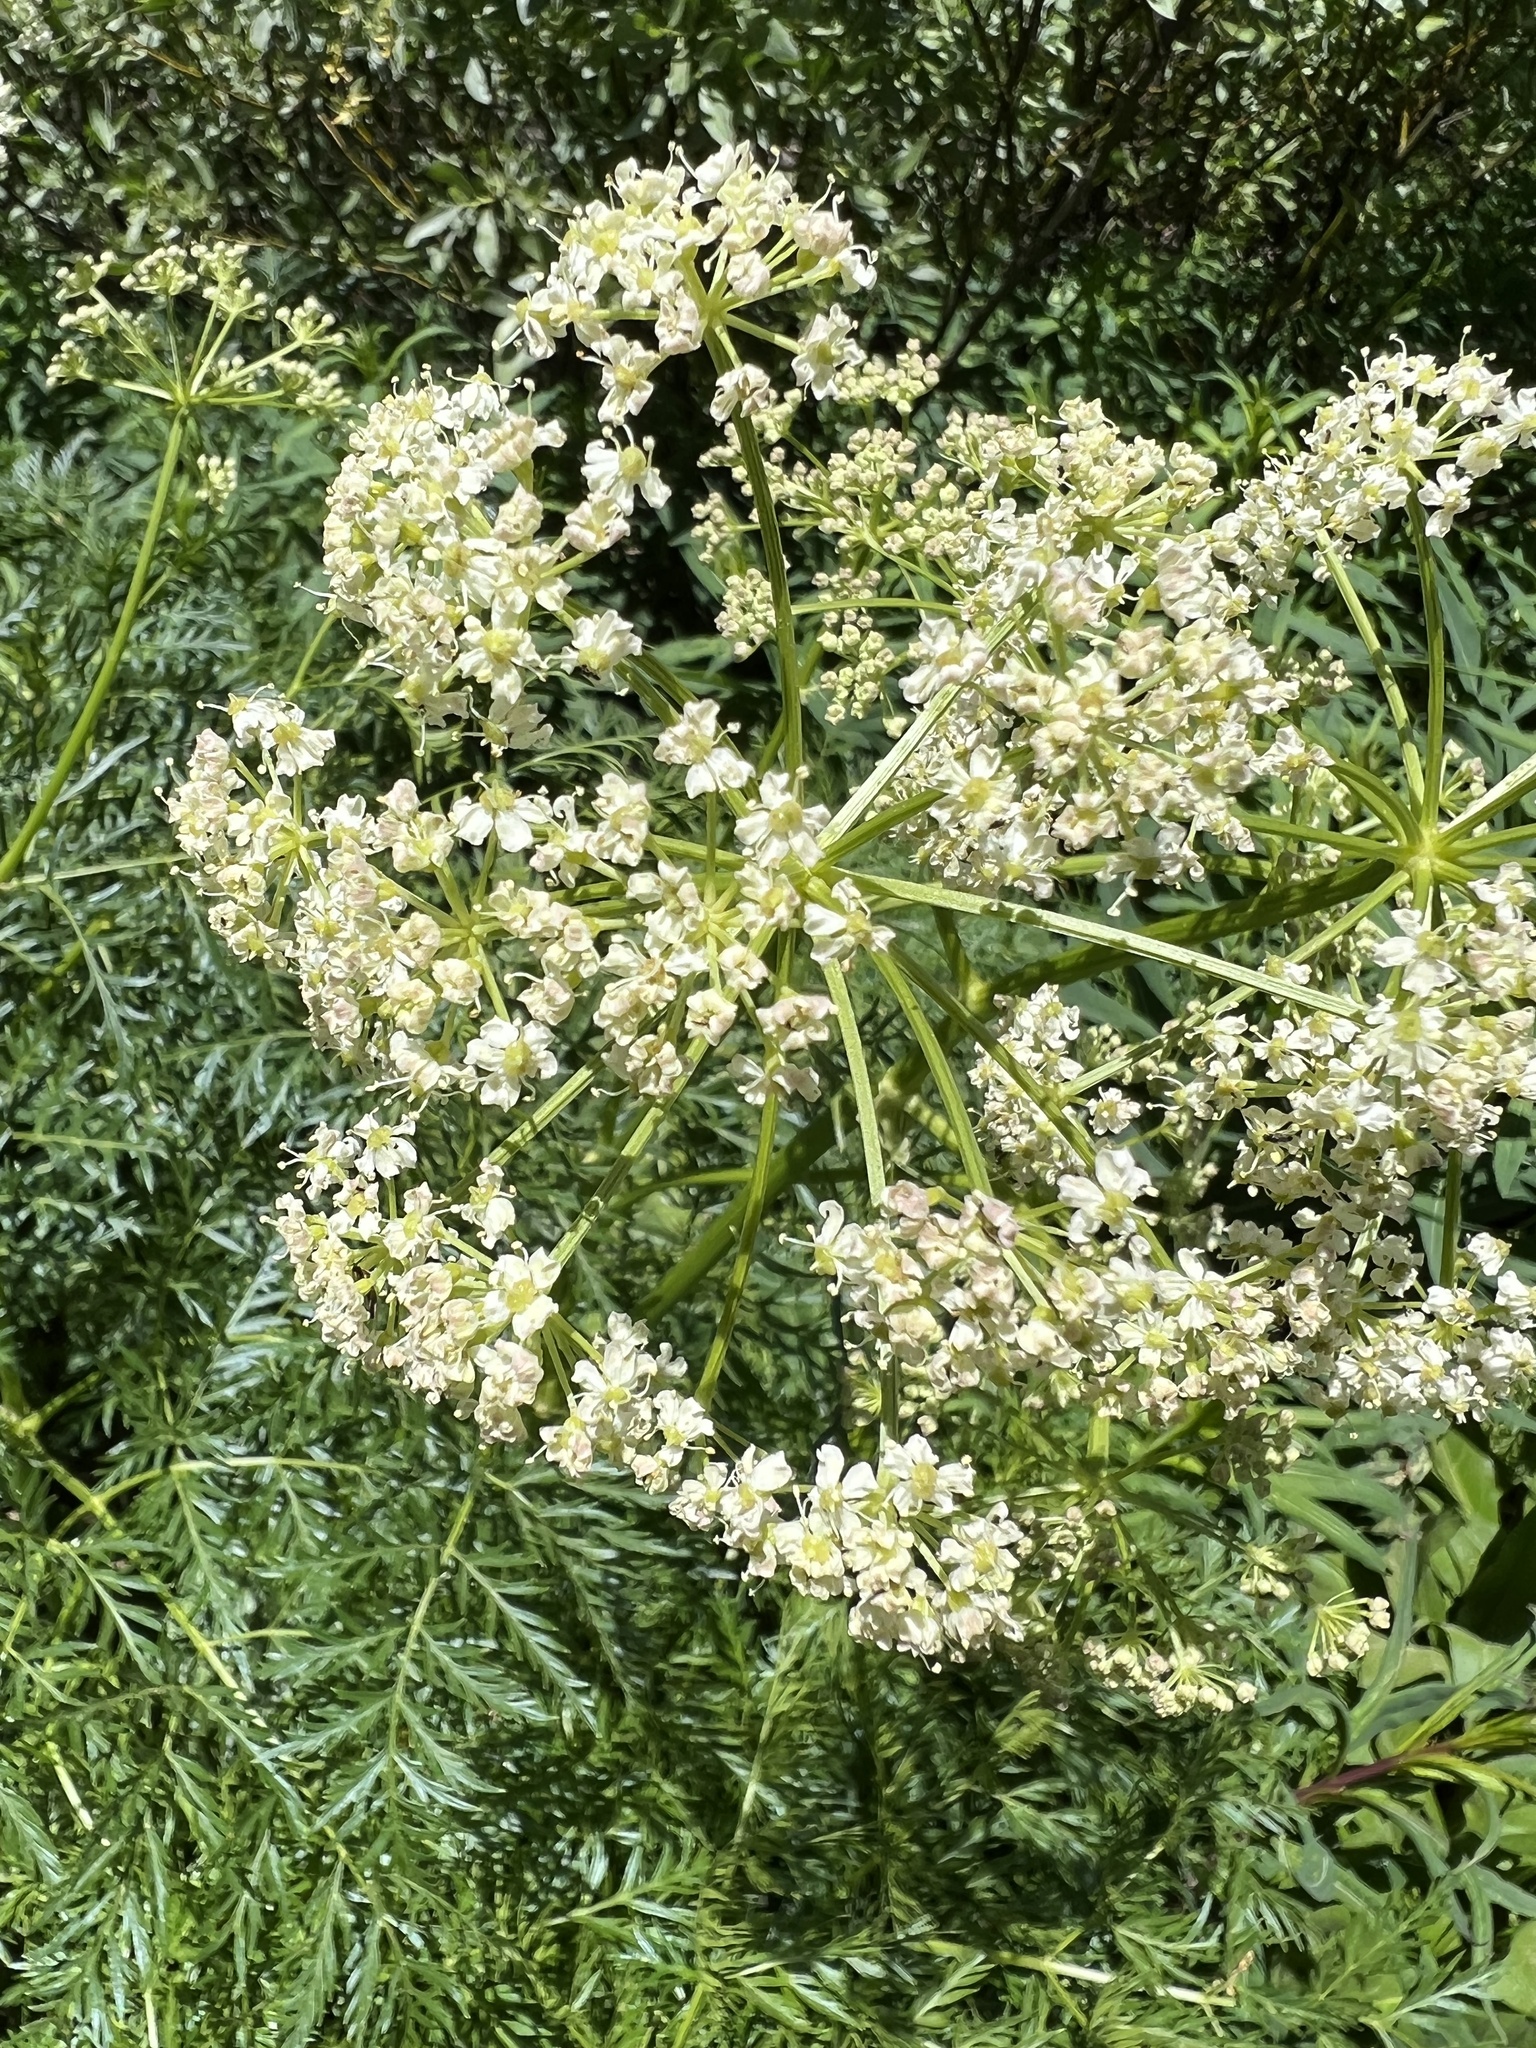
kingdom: Plantae
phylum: Tracheophyta
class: Magnoliopsida
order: Apiales
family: Apiaceae
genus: Conium
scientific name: Conium maculatum
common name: Hemlock
